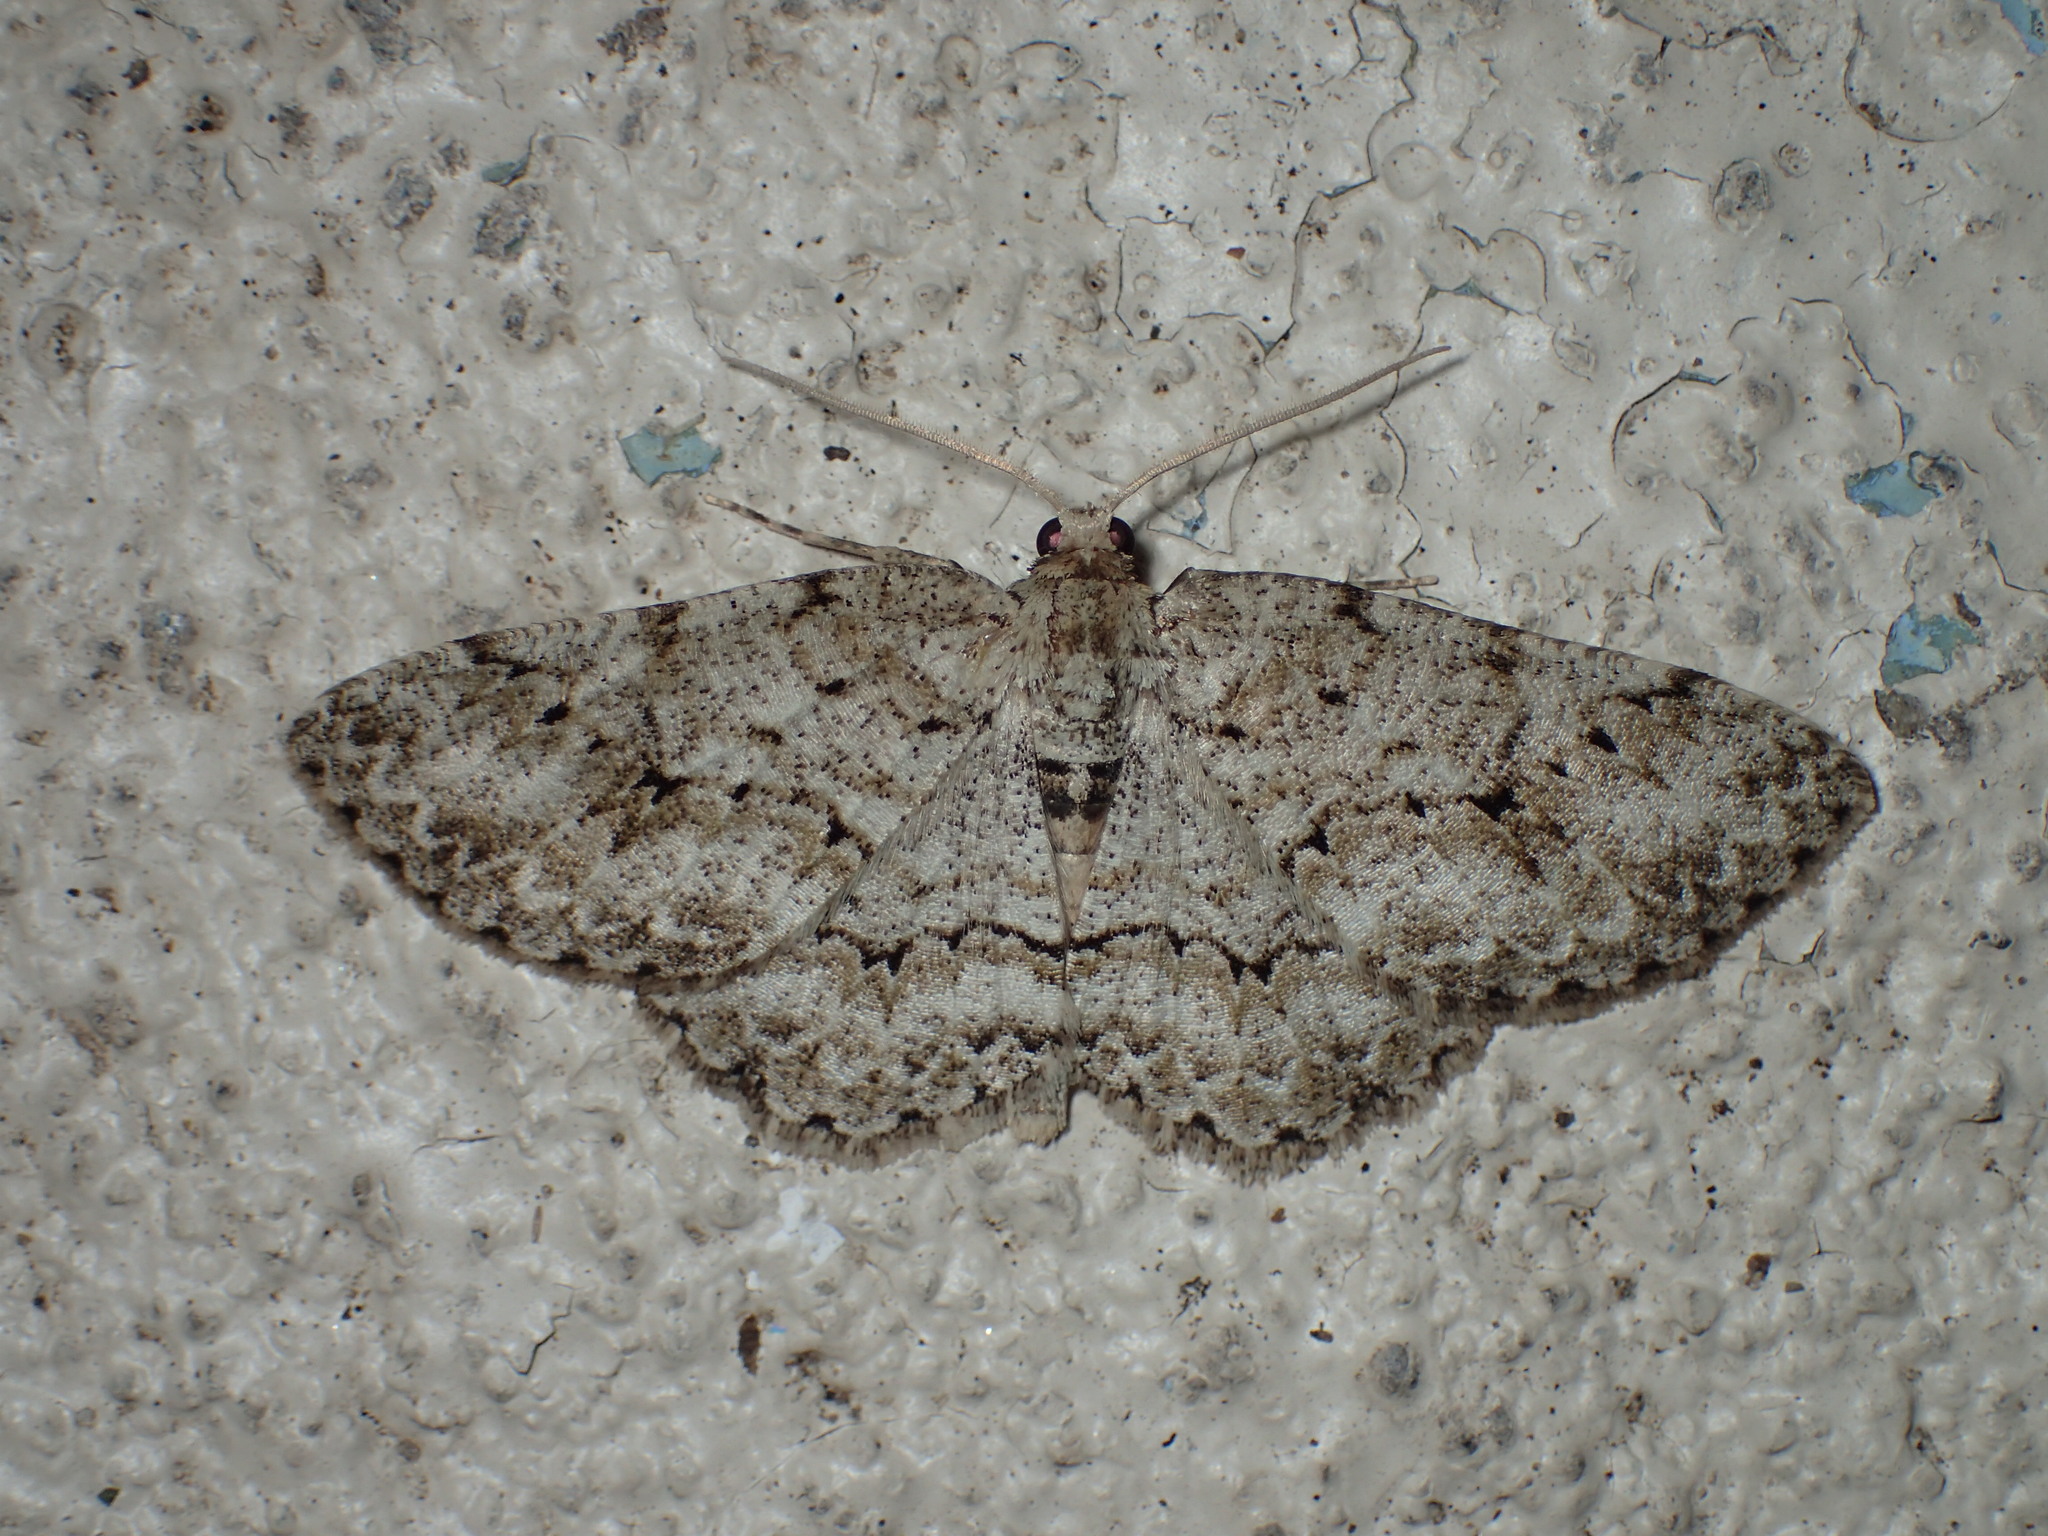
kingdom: Animalia
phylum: Arthropoda
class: Insecta
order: Lepidoptera
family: Geometridae
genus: Ectropis
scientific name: Ectropis crepuscularia
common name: Engrailed
